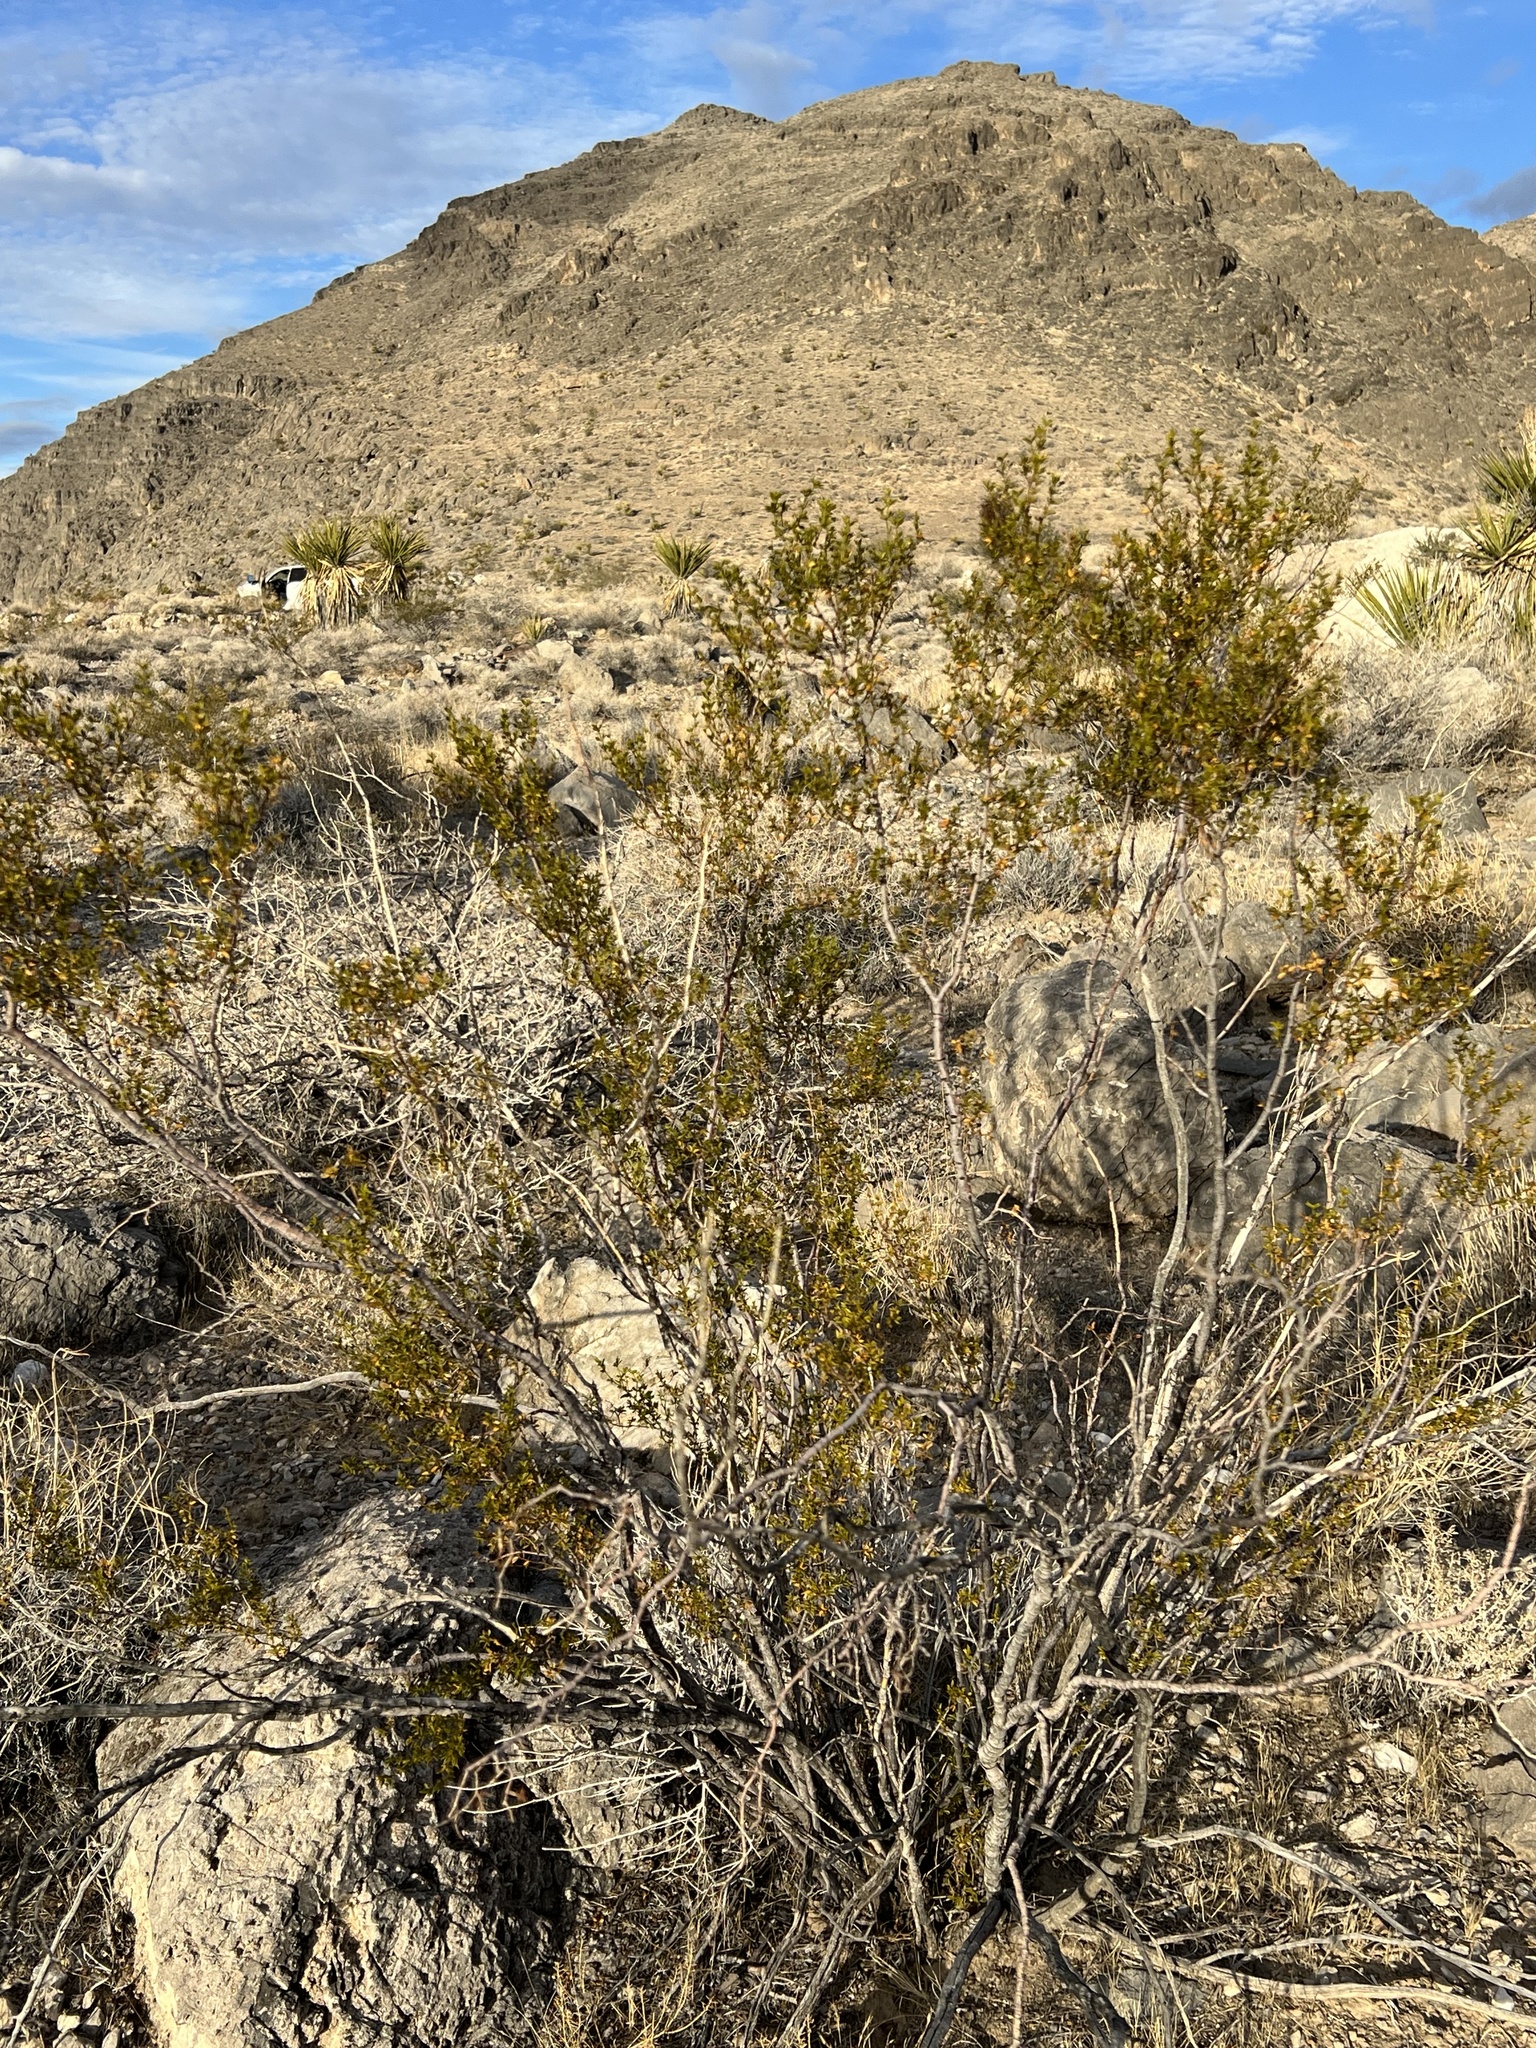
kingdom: Plantae
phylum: Tracheophyta
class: Magnoliopsida
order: Zygophyllales
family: Zygophyllaceae
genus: Larrea
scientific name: Larrea tridentata
